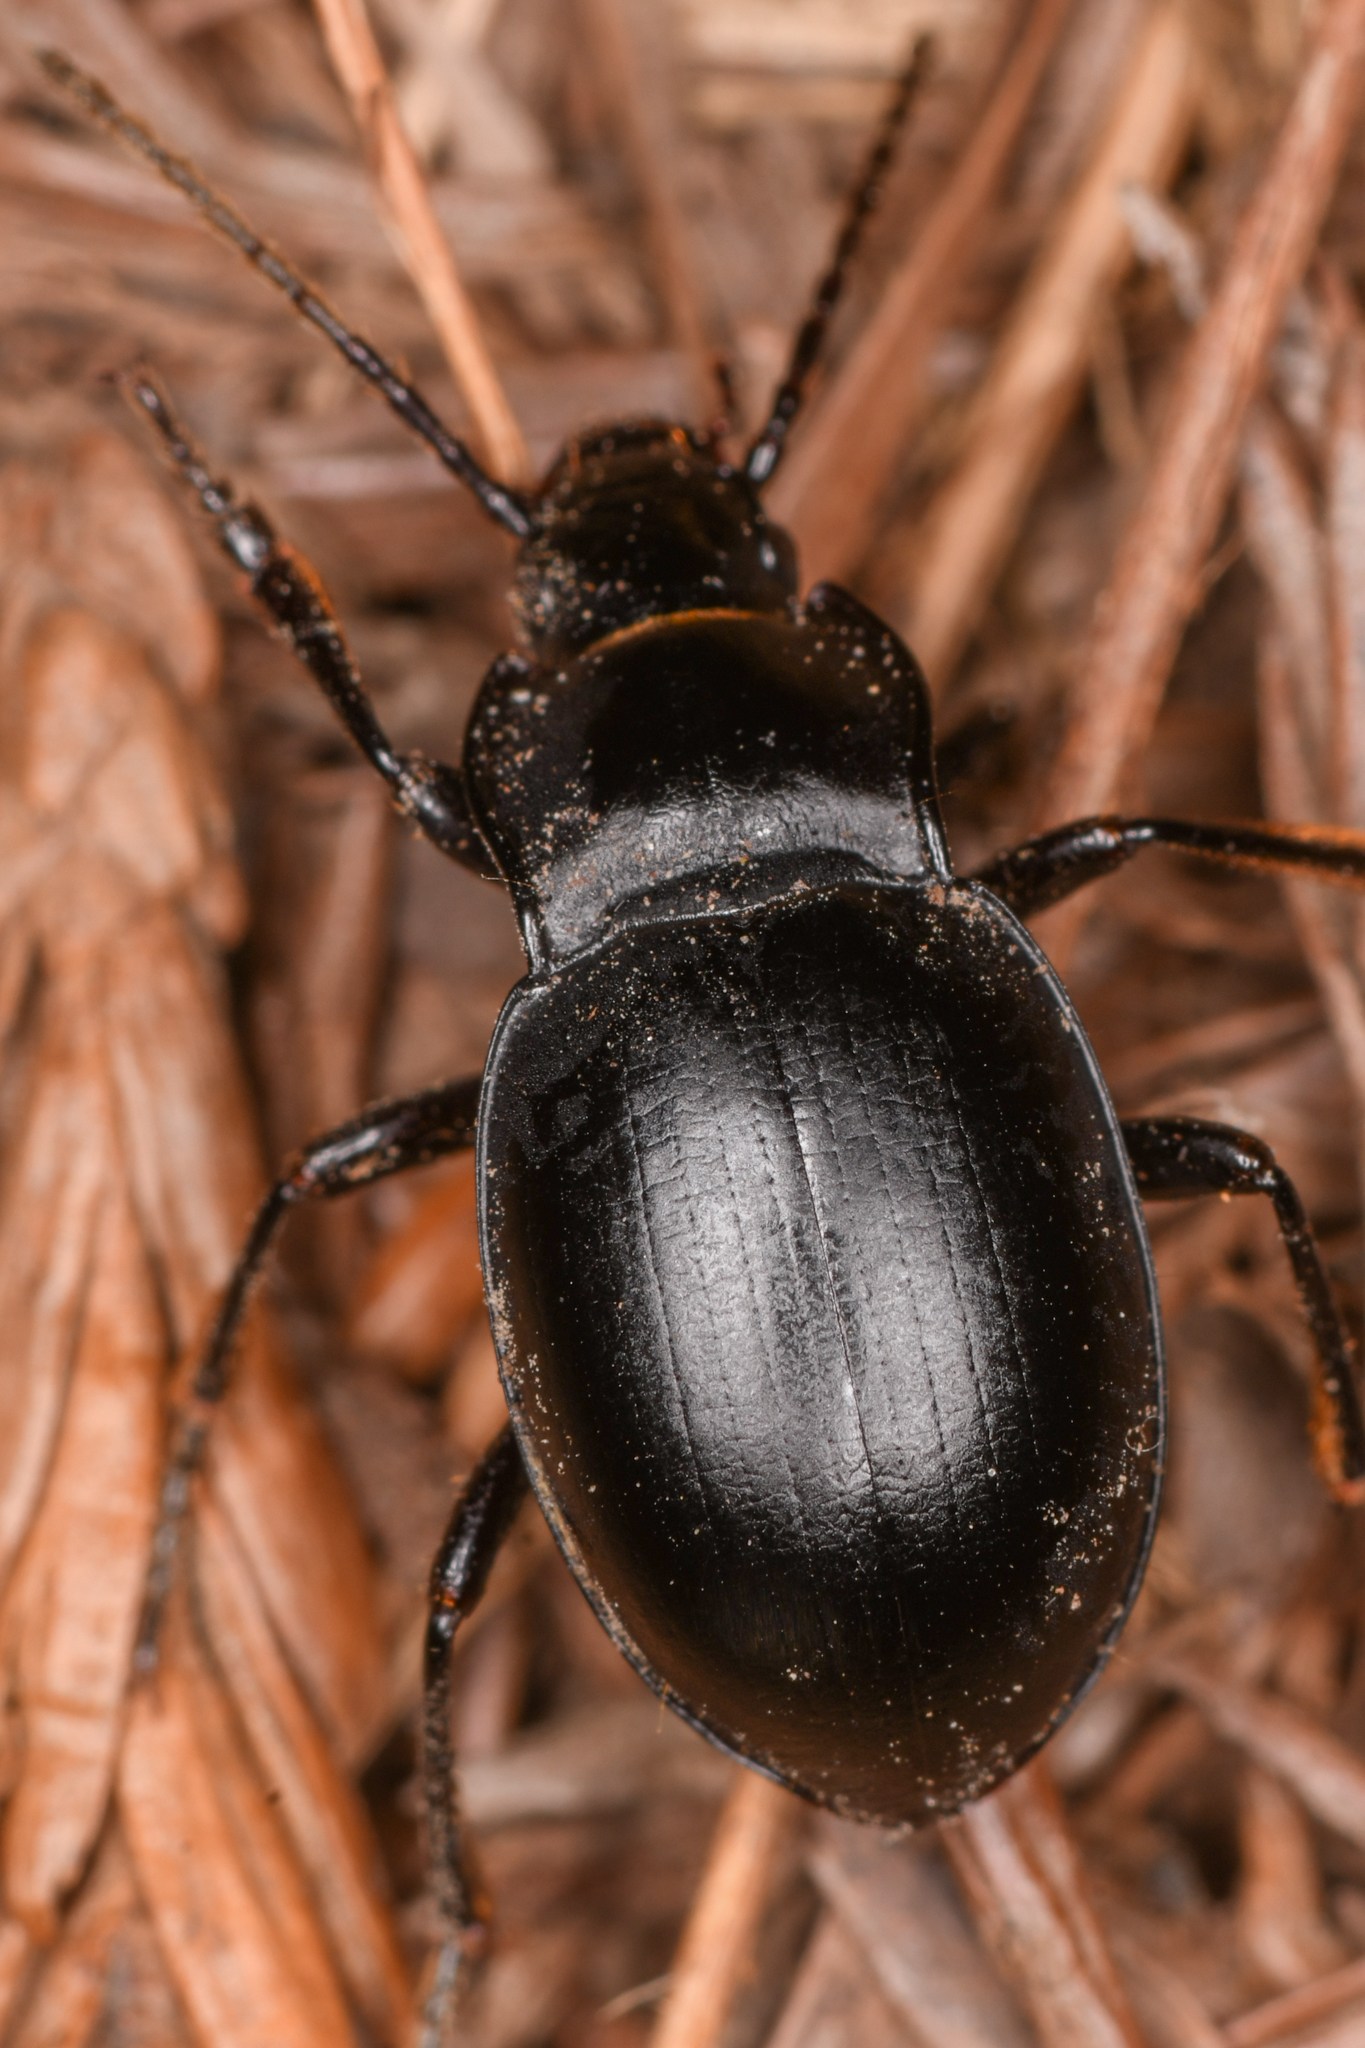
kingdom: Animalia
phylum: Arthropoda
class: Insecta
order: Coleoptera
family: Carabidae
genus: Metrius
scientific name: Metrius contractus
